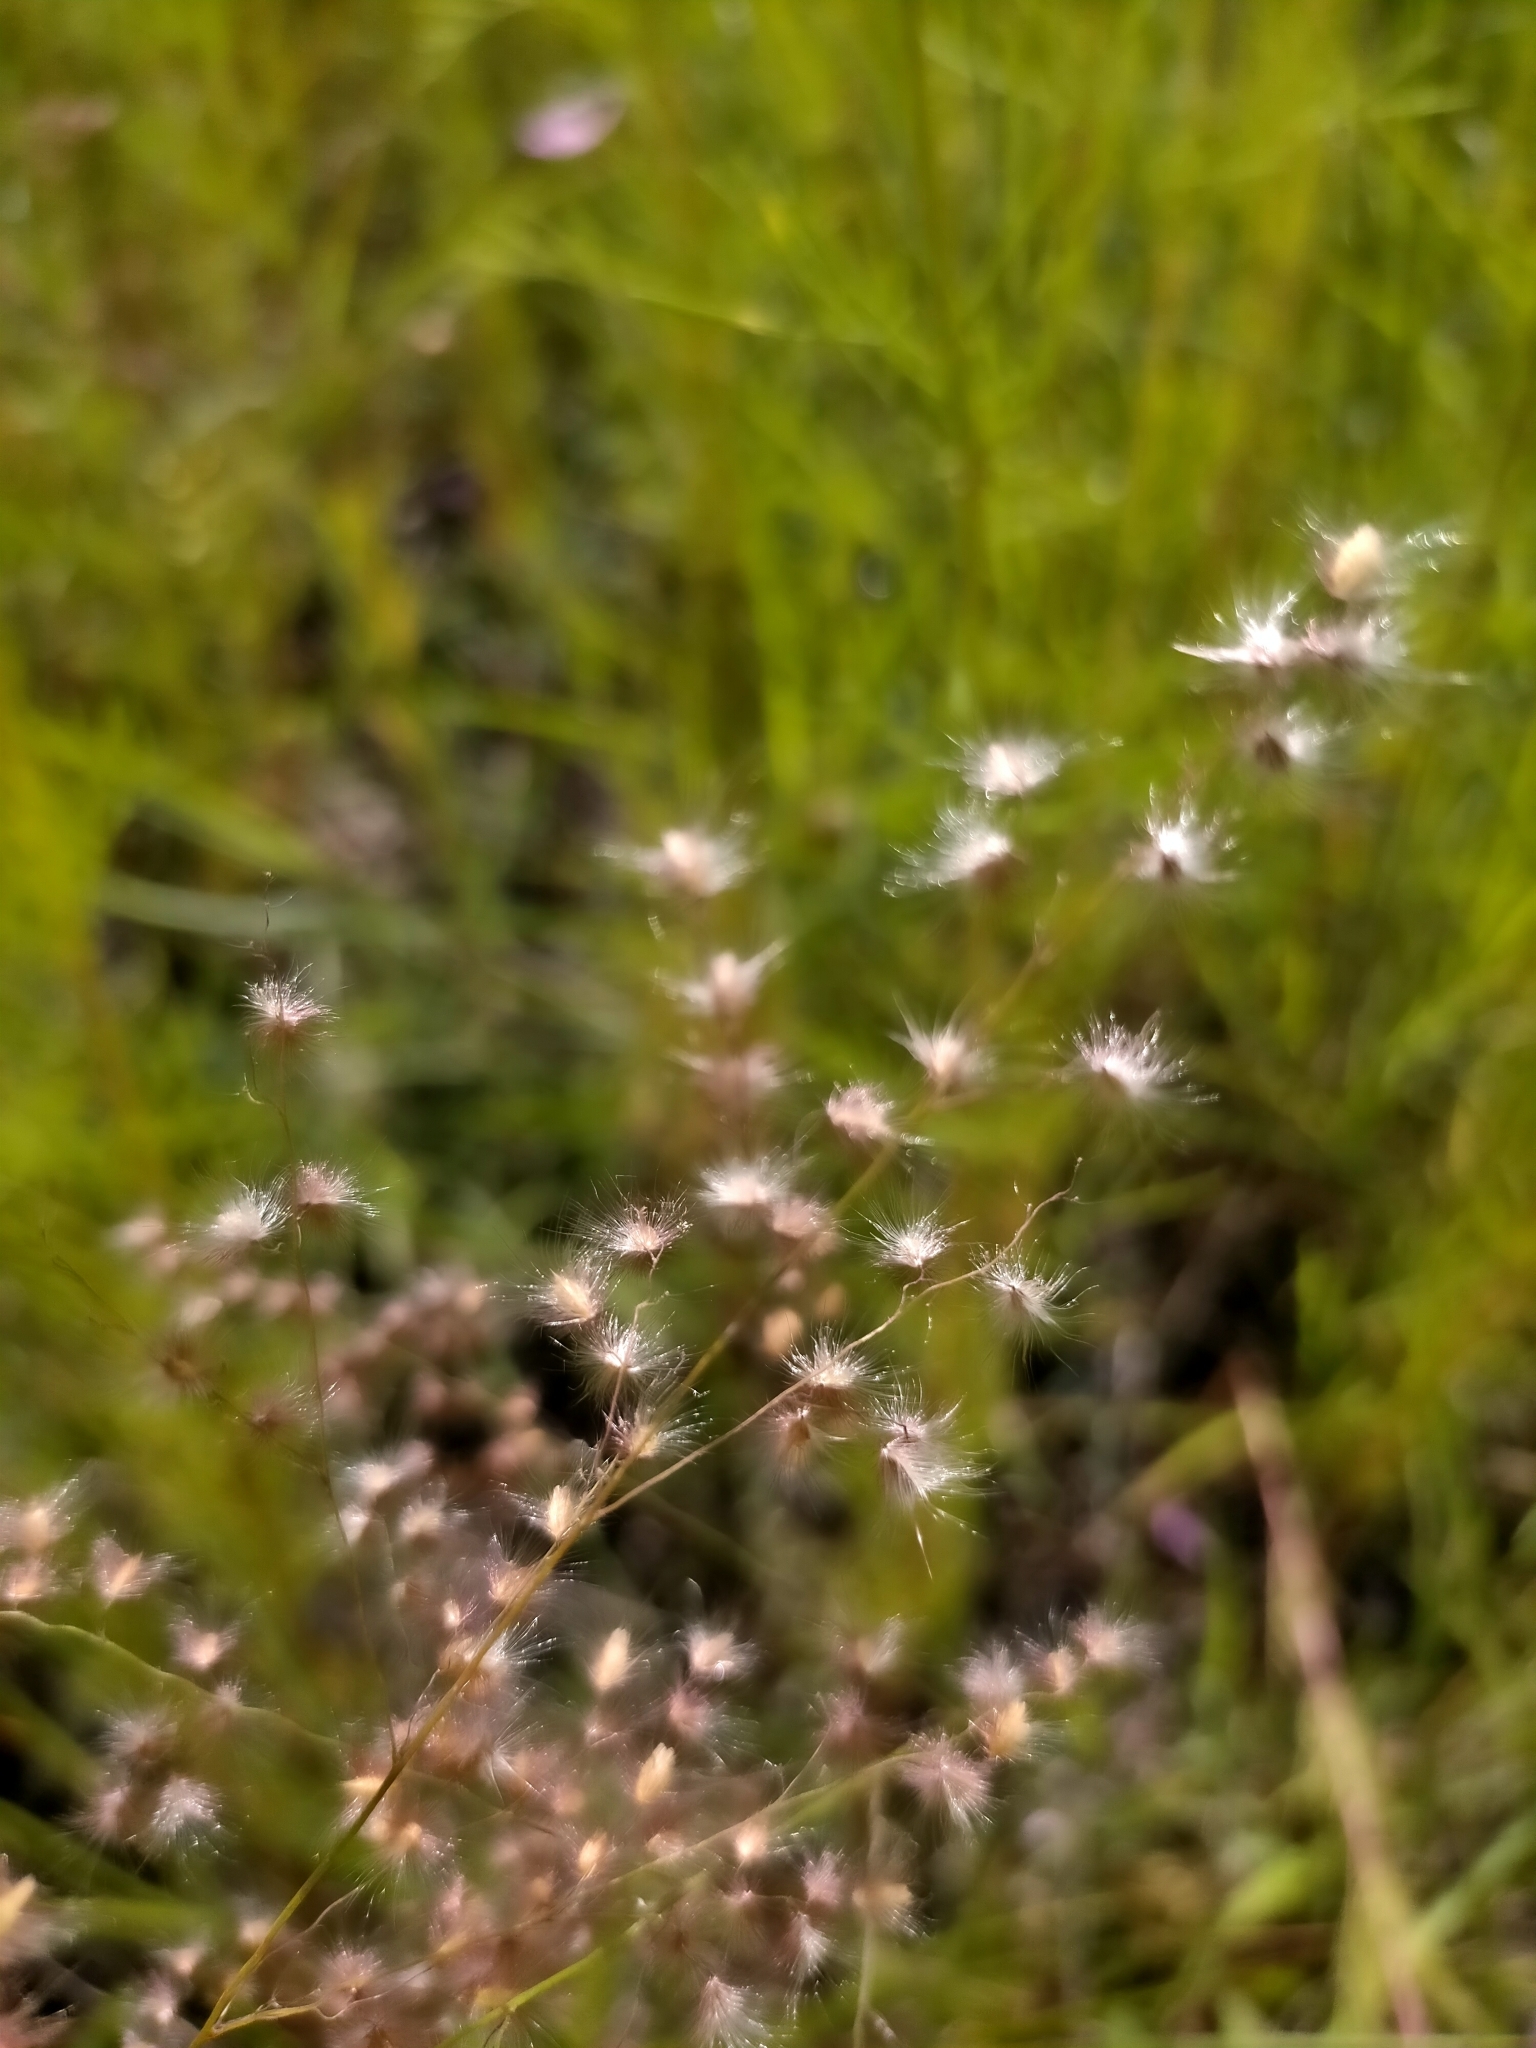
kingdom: Plantae
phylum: Tracheophyta
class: Liliopsida
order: Poales
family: Poaceae
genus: Melinis
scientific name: Melinis repens
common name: Rose natal grass
